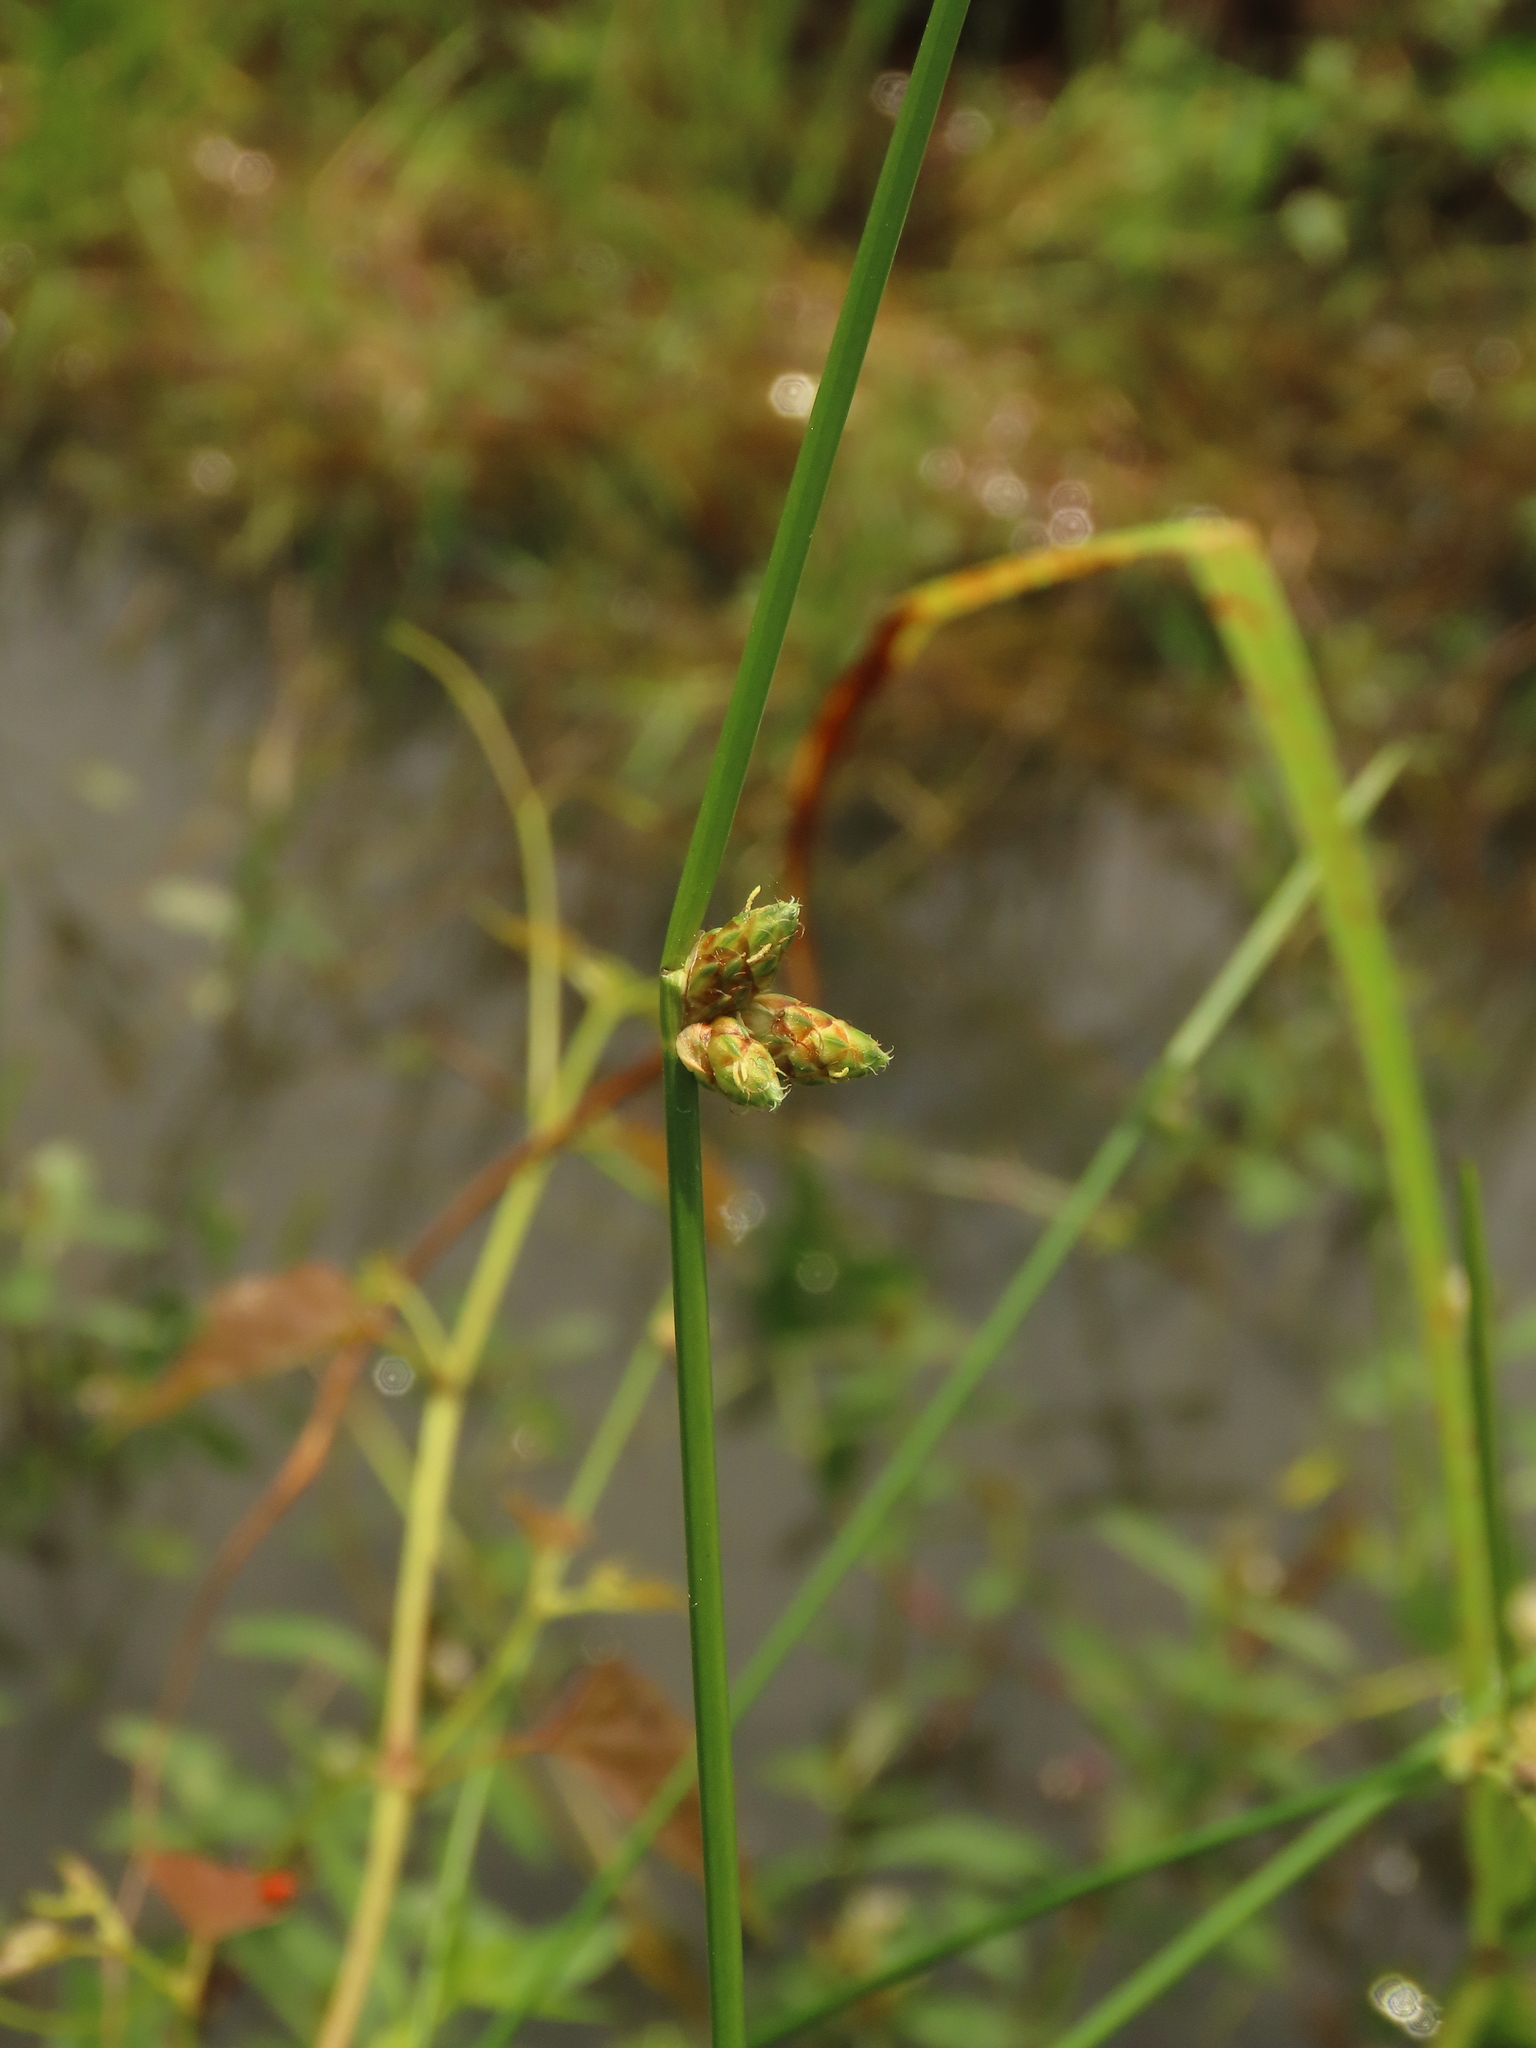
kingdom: Plantae
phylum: Tracheophyta
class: Liliopsida
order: Poales
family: Cyperaceae
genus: Schoenoplectiella
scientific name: Schoenoplectiella juncoides
